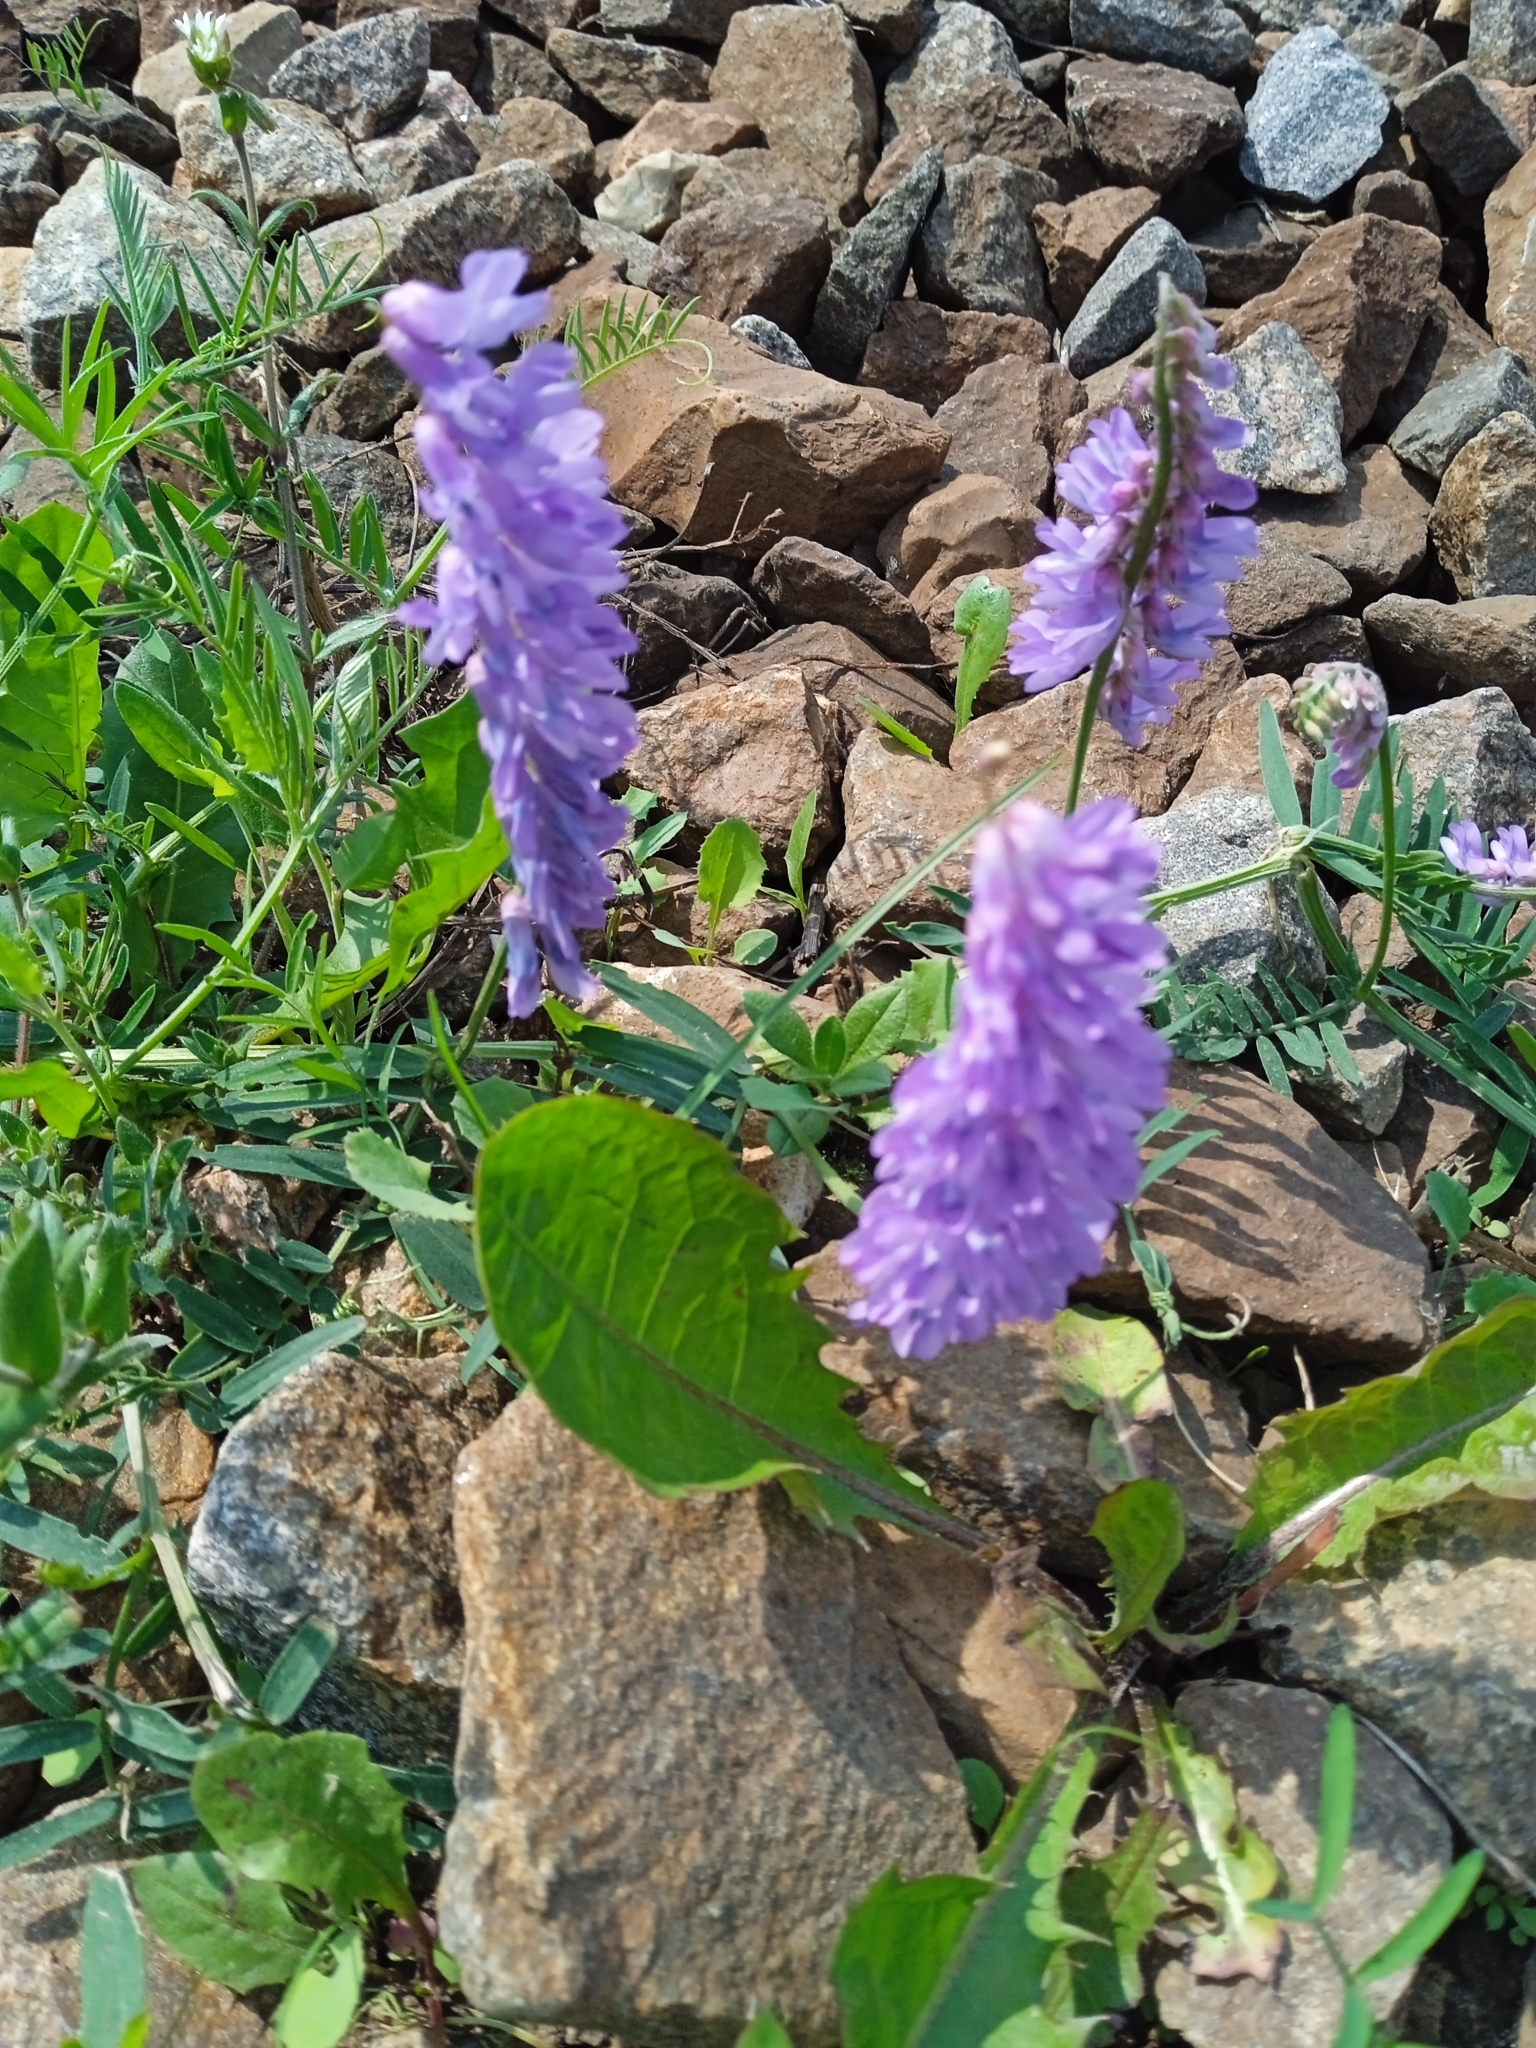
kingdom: Plantae
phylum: Tracheophyta
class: Magnoliopsida
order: Fabales
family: Fabaceae
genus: Vicia
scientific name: Vicia cracca
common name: Bird vetch
